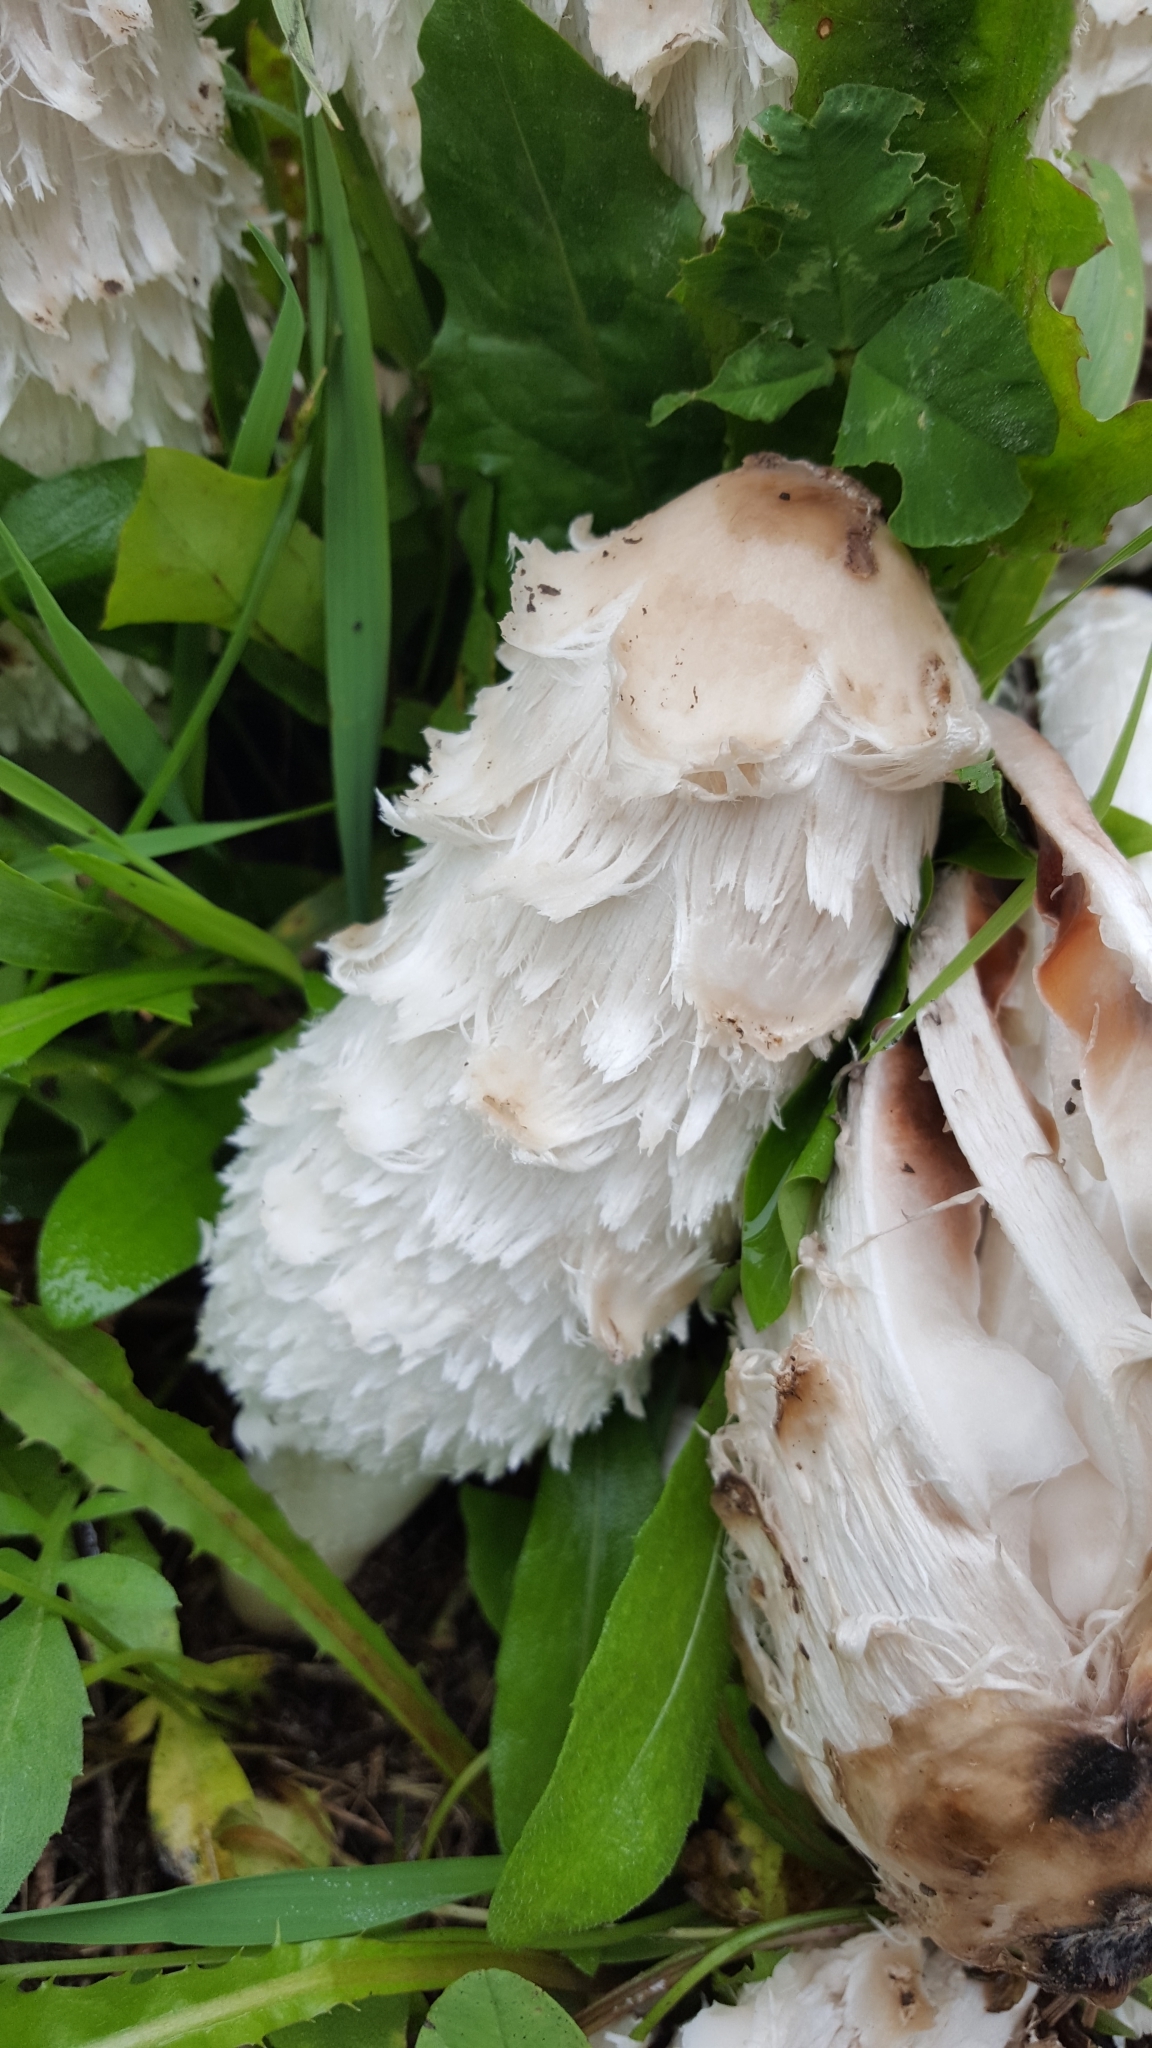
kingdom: Fungi
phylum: Basidiomycota
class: Agaricomycetes
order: Agaricales
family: Agaricaceae
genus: Coprinus
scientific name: Coprinus comatus
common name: Lawyer's wig
